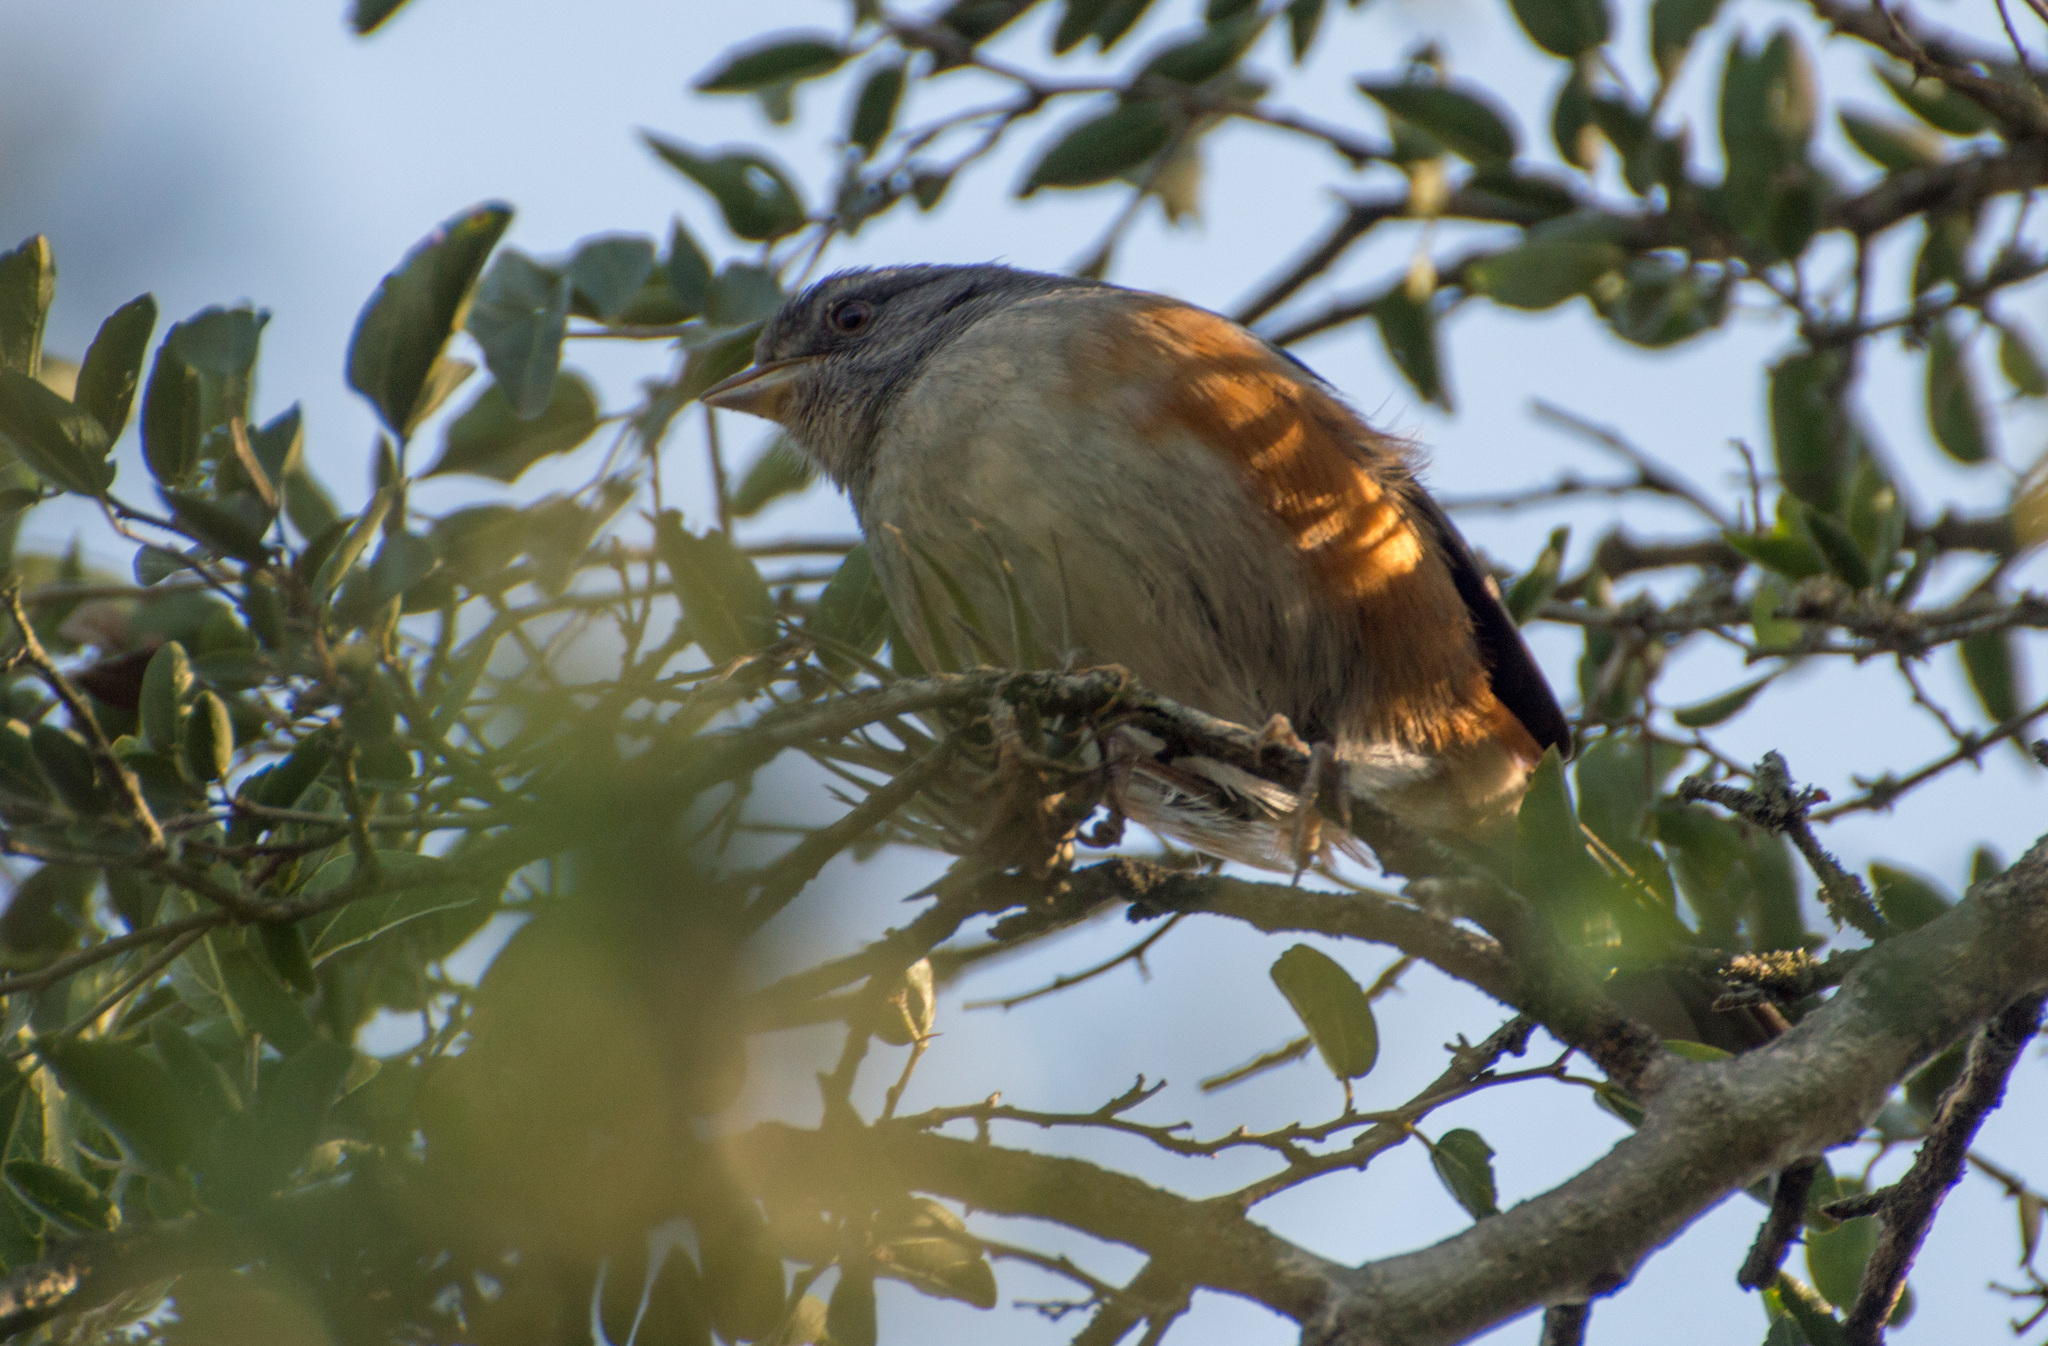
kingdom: Animalia
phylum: Chordata
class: Aves
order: Passeriformes
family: Thraupidae
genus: Microspingus
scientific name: Microspingus cabanisi
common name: Gray-throated warbling-finch
